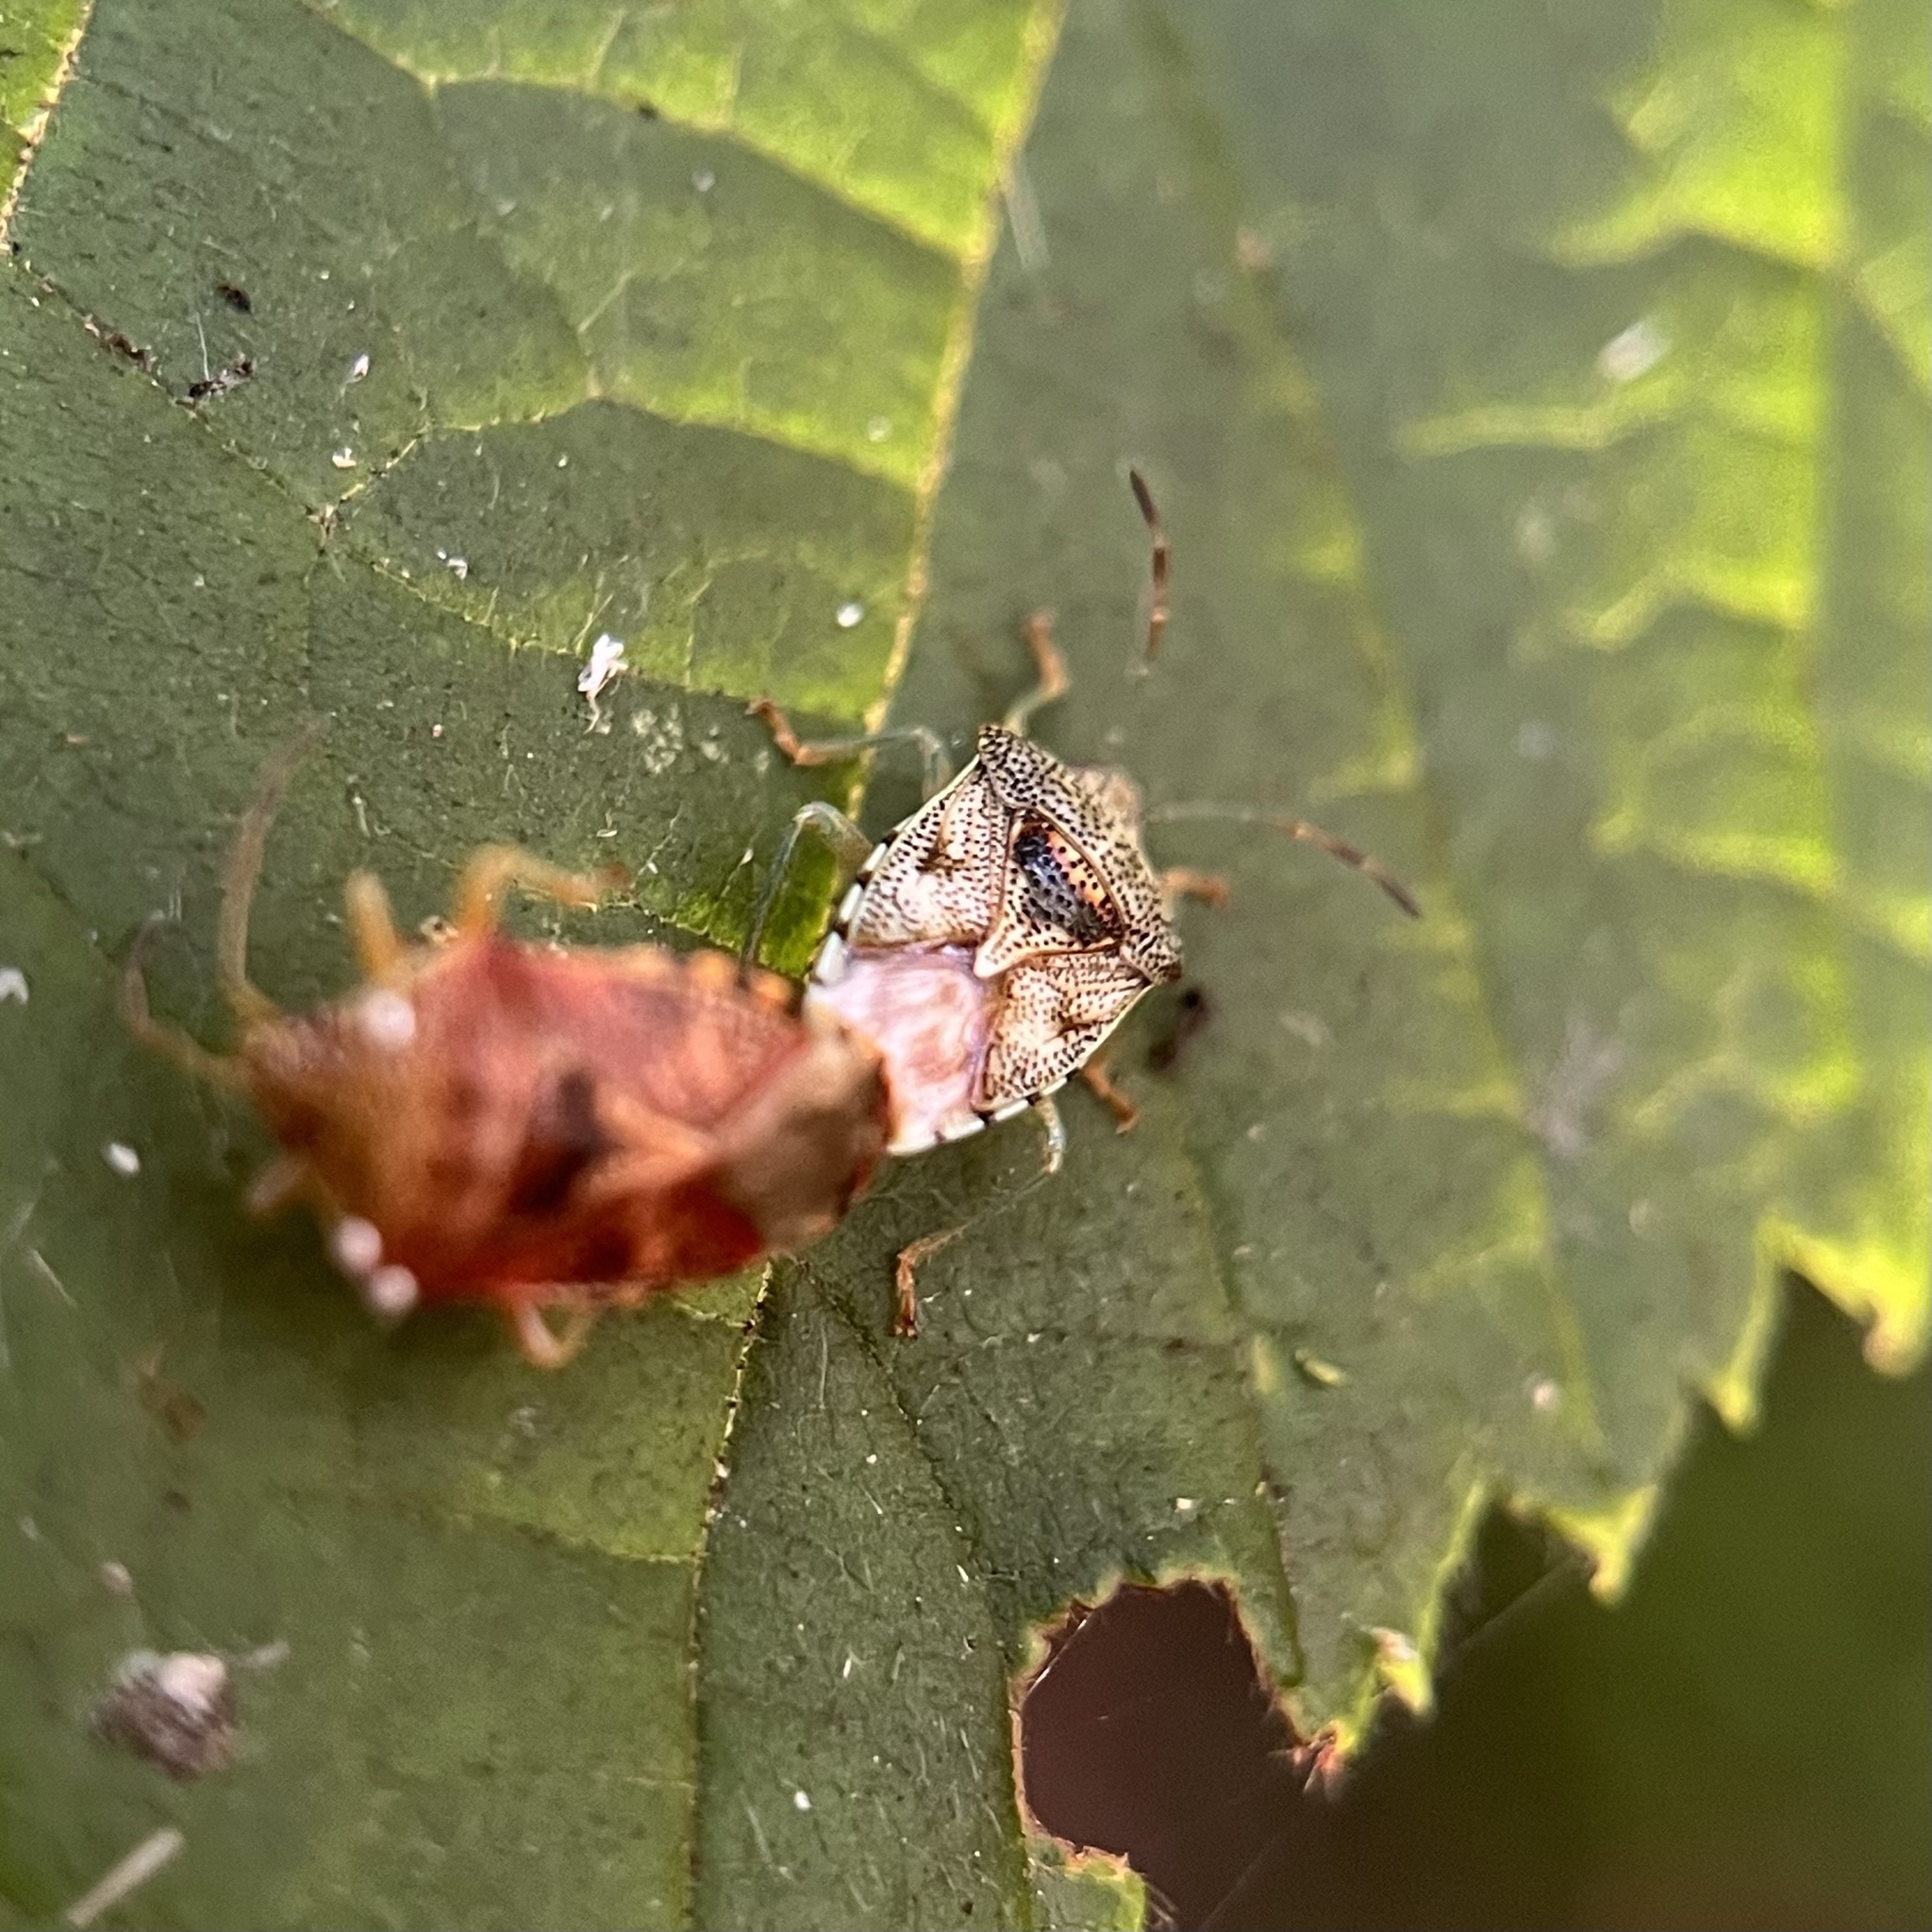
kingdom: Animalia
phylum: Arthropoda
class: Insecta
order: Hemiptera
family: Acanthosomatidae
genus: Elasmucha
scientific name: Elasmucha grisea
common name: Parent bug
